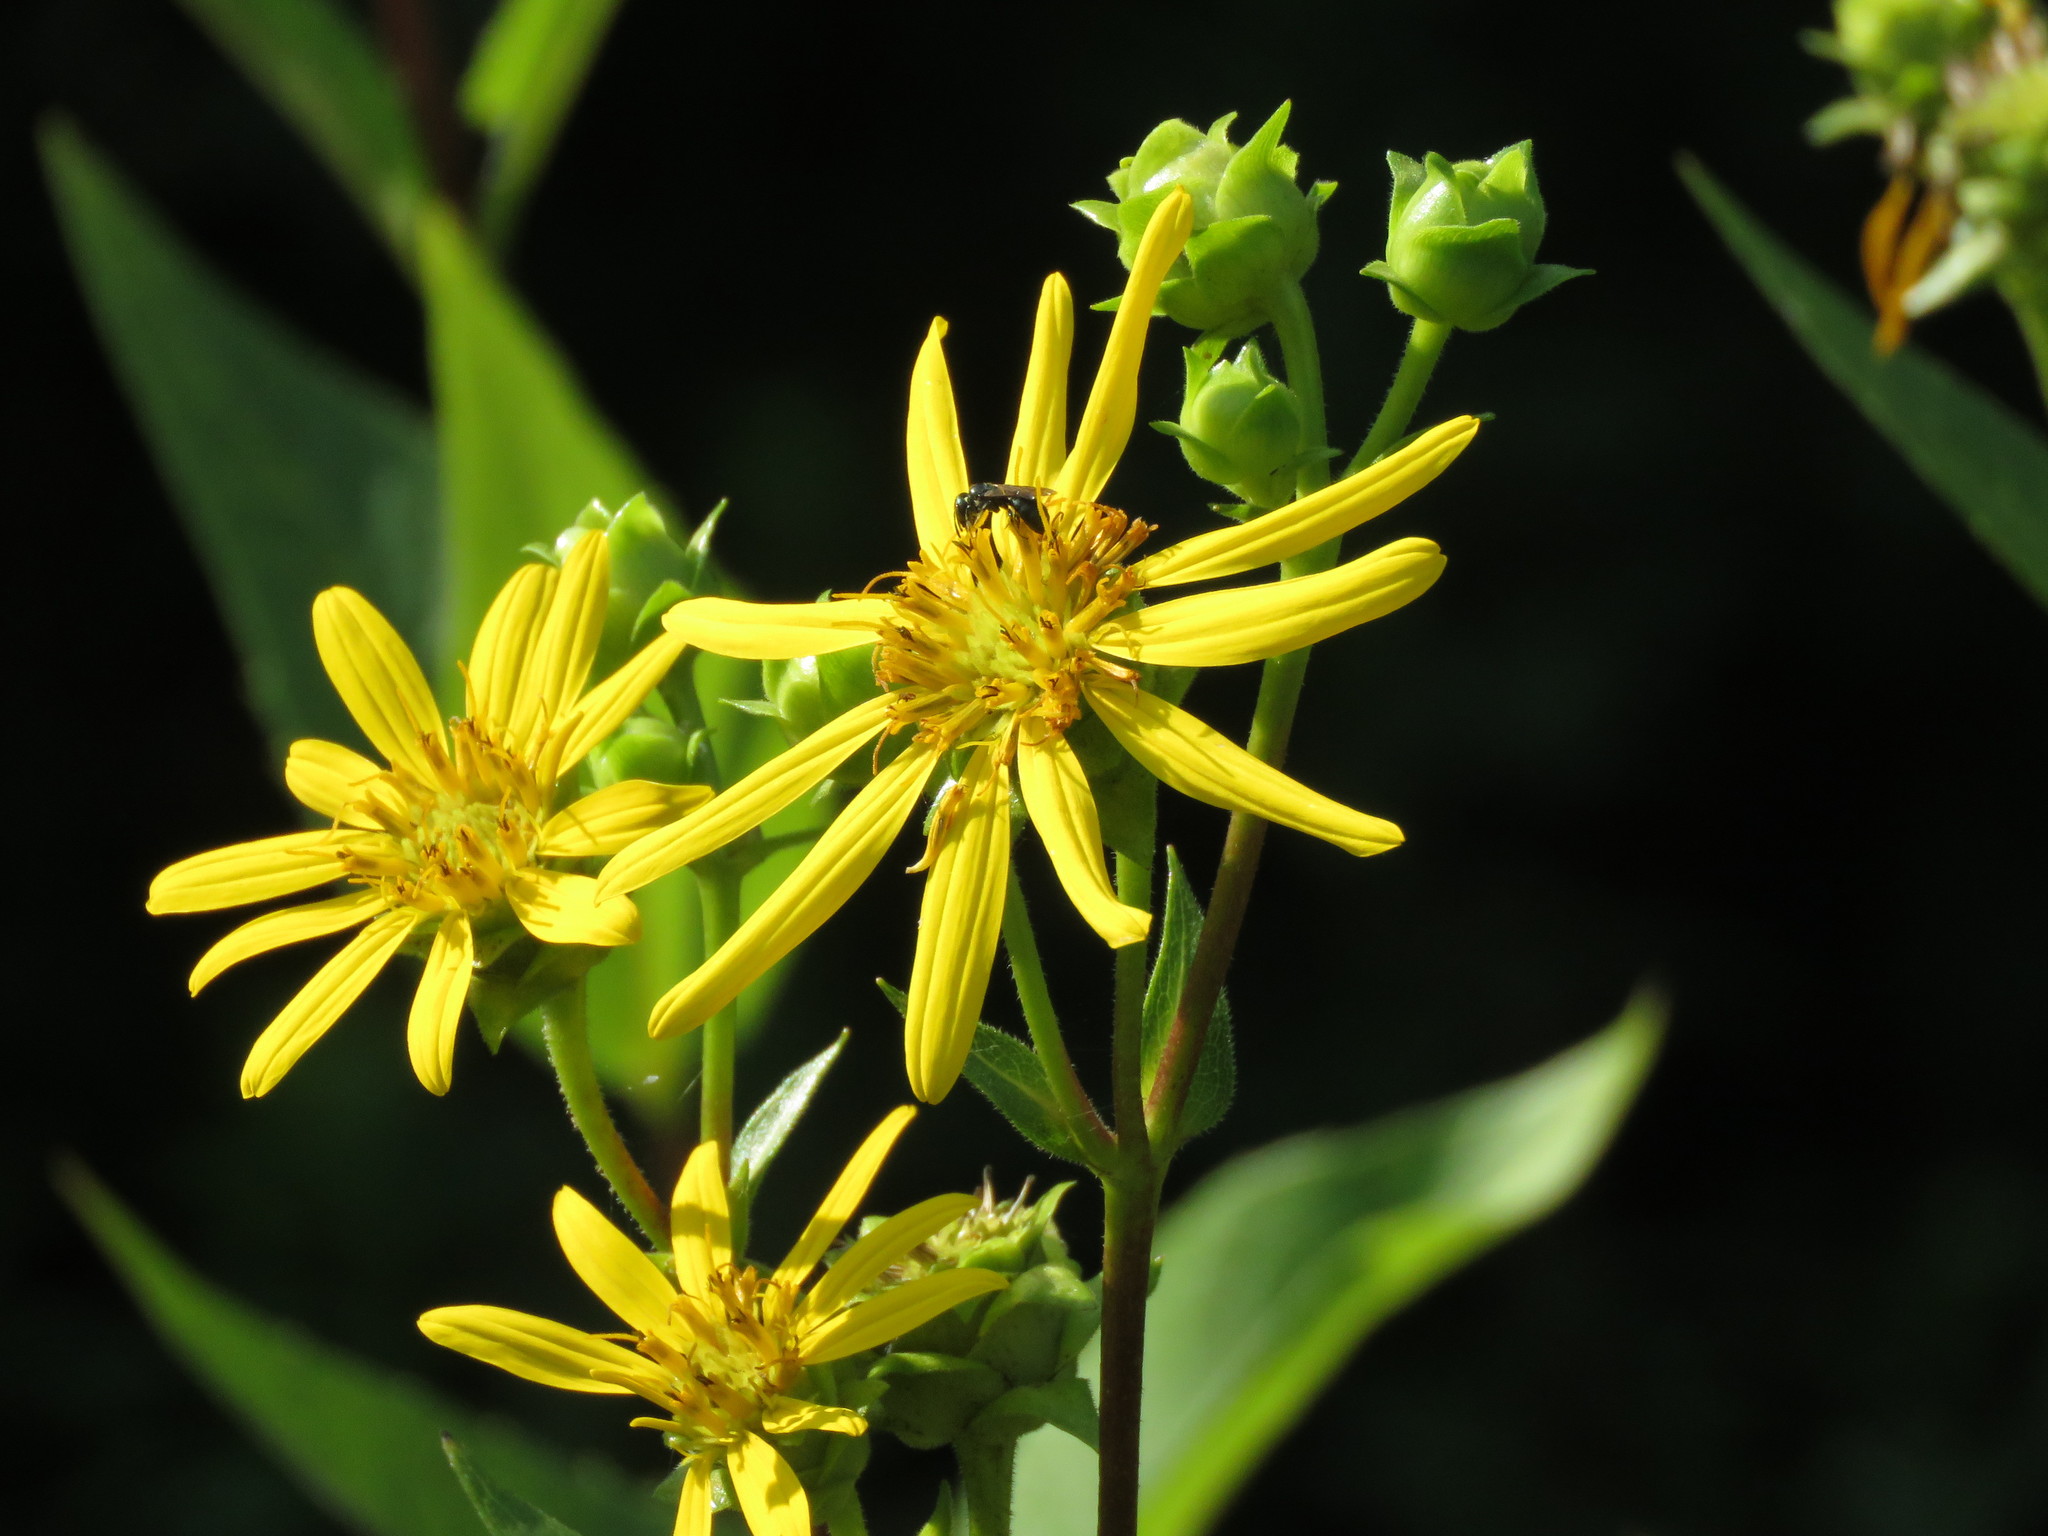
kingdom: Plantae
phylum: Tracheophyta
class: Magnoliopsida
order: Asterales
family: Asteraceae
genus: Silphium
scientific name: Silphium integrifolium
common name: Whole-leaf rosinweed
